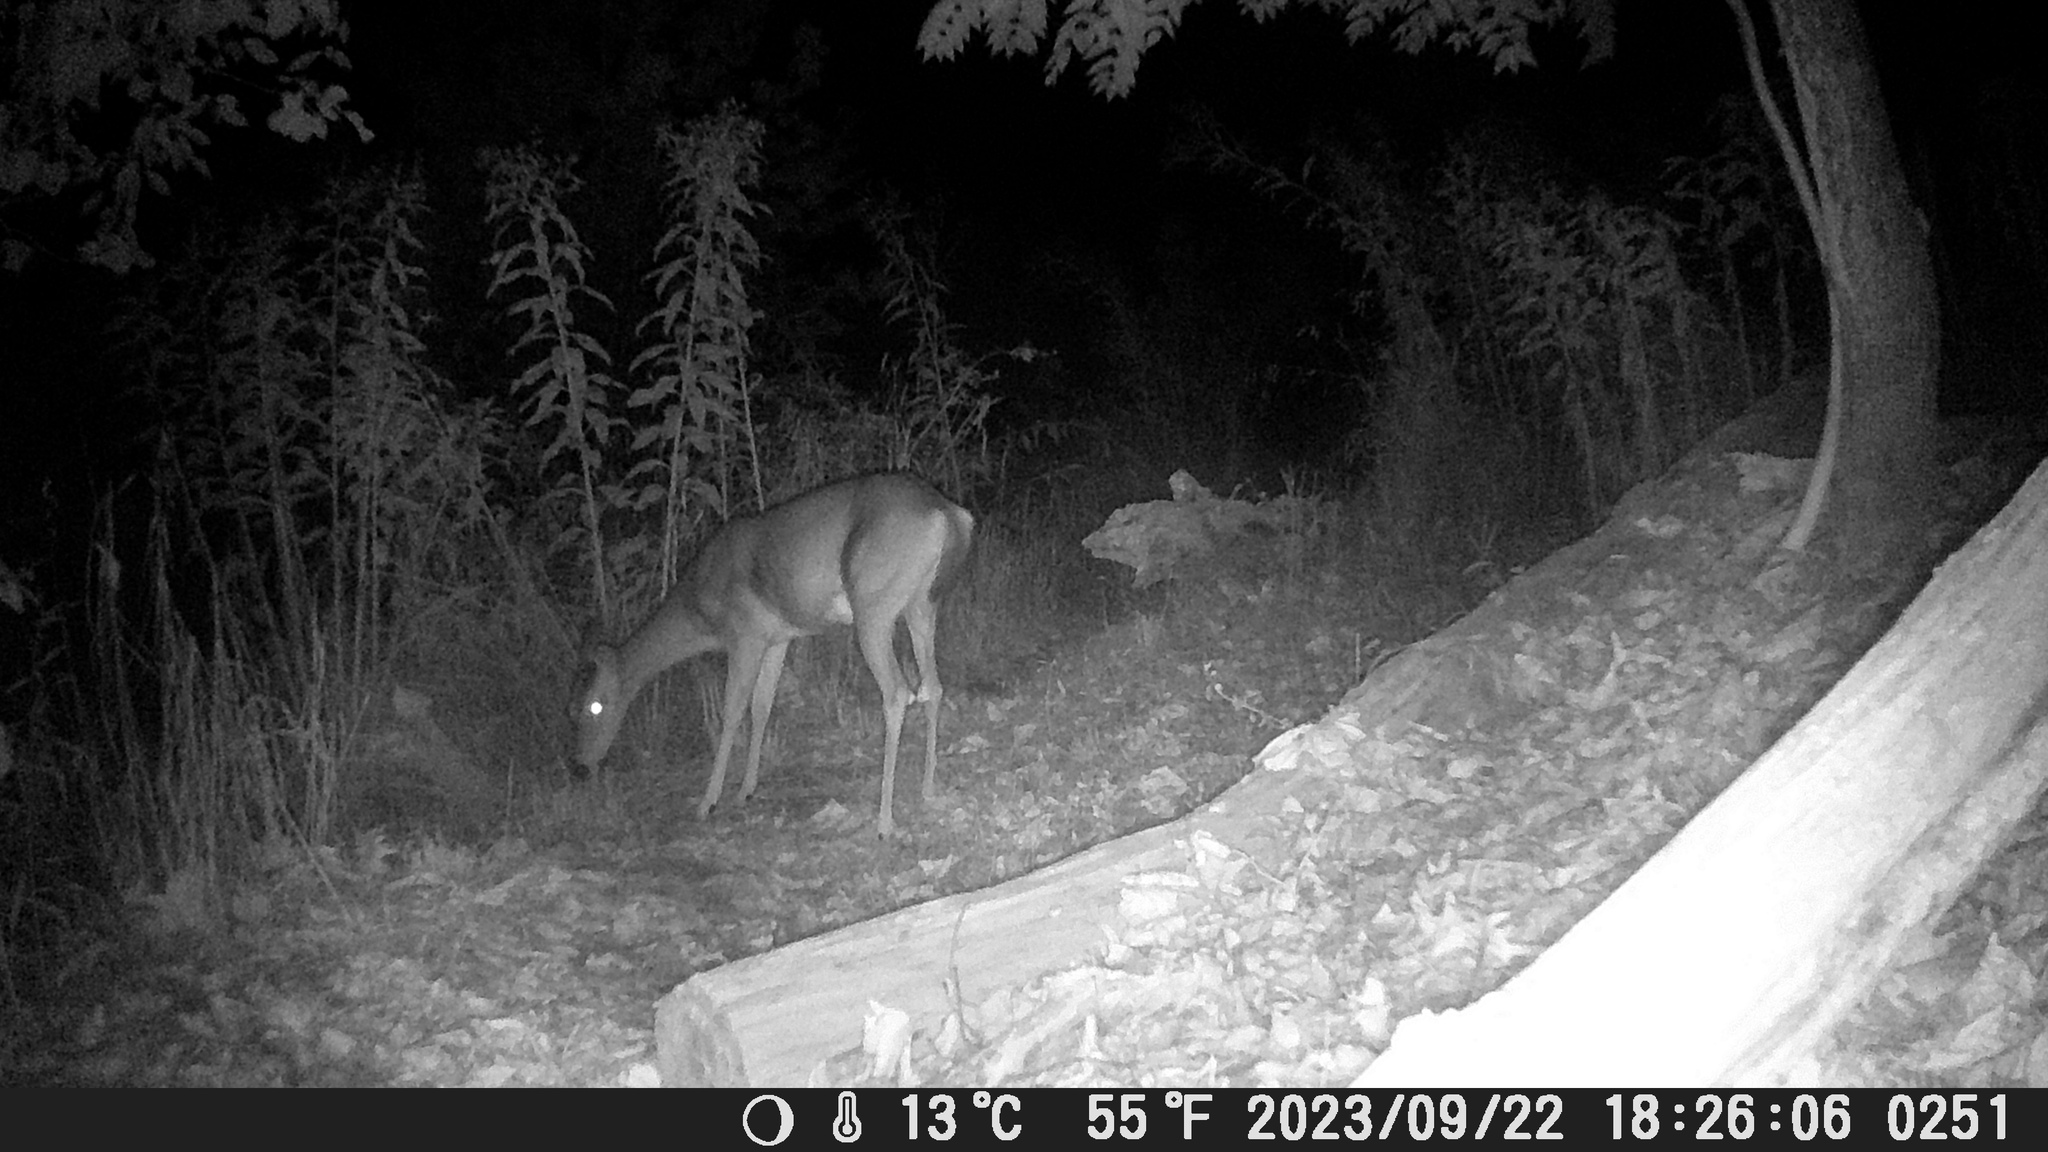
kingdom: Animalia
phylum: Chordata
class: Mammalia
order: Artiodactyla
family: Cervidae
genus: Odocoileus
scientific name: Odocoileus virginianus
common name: White-tailed deer
